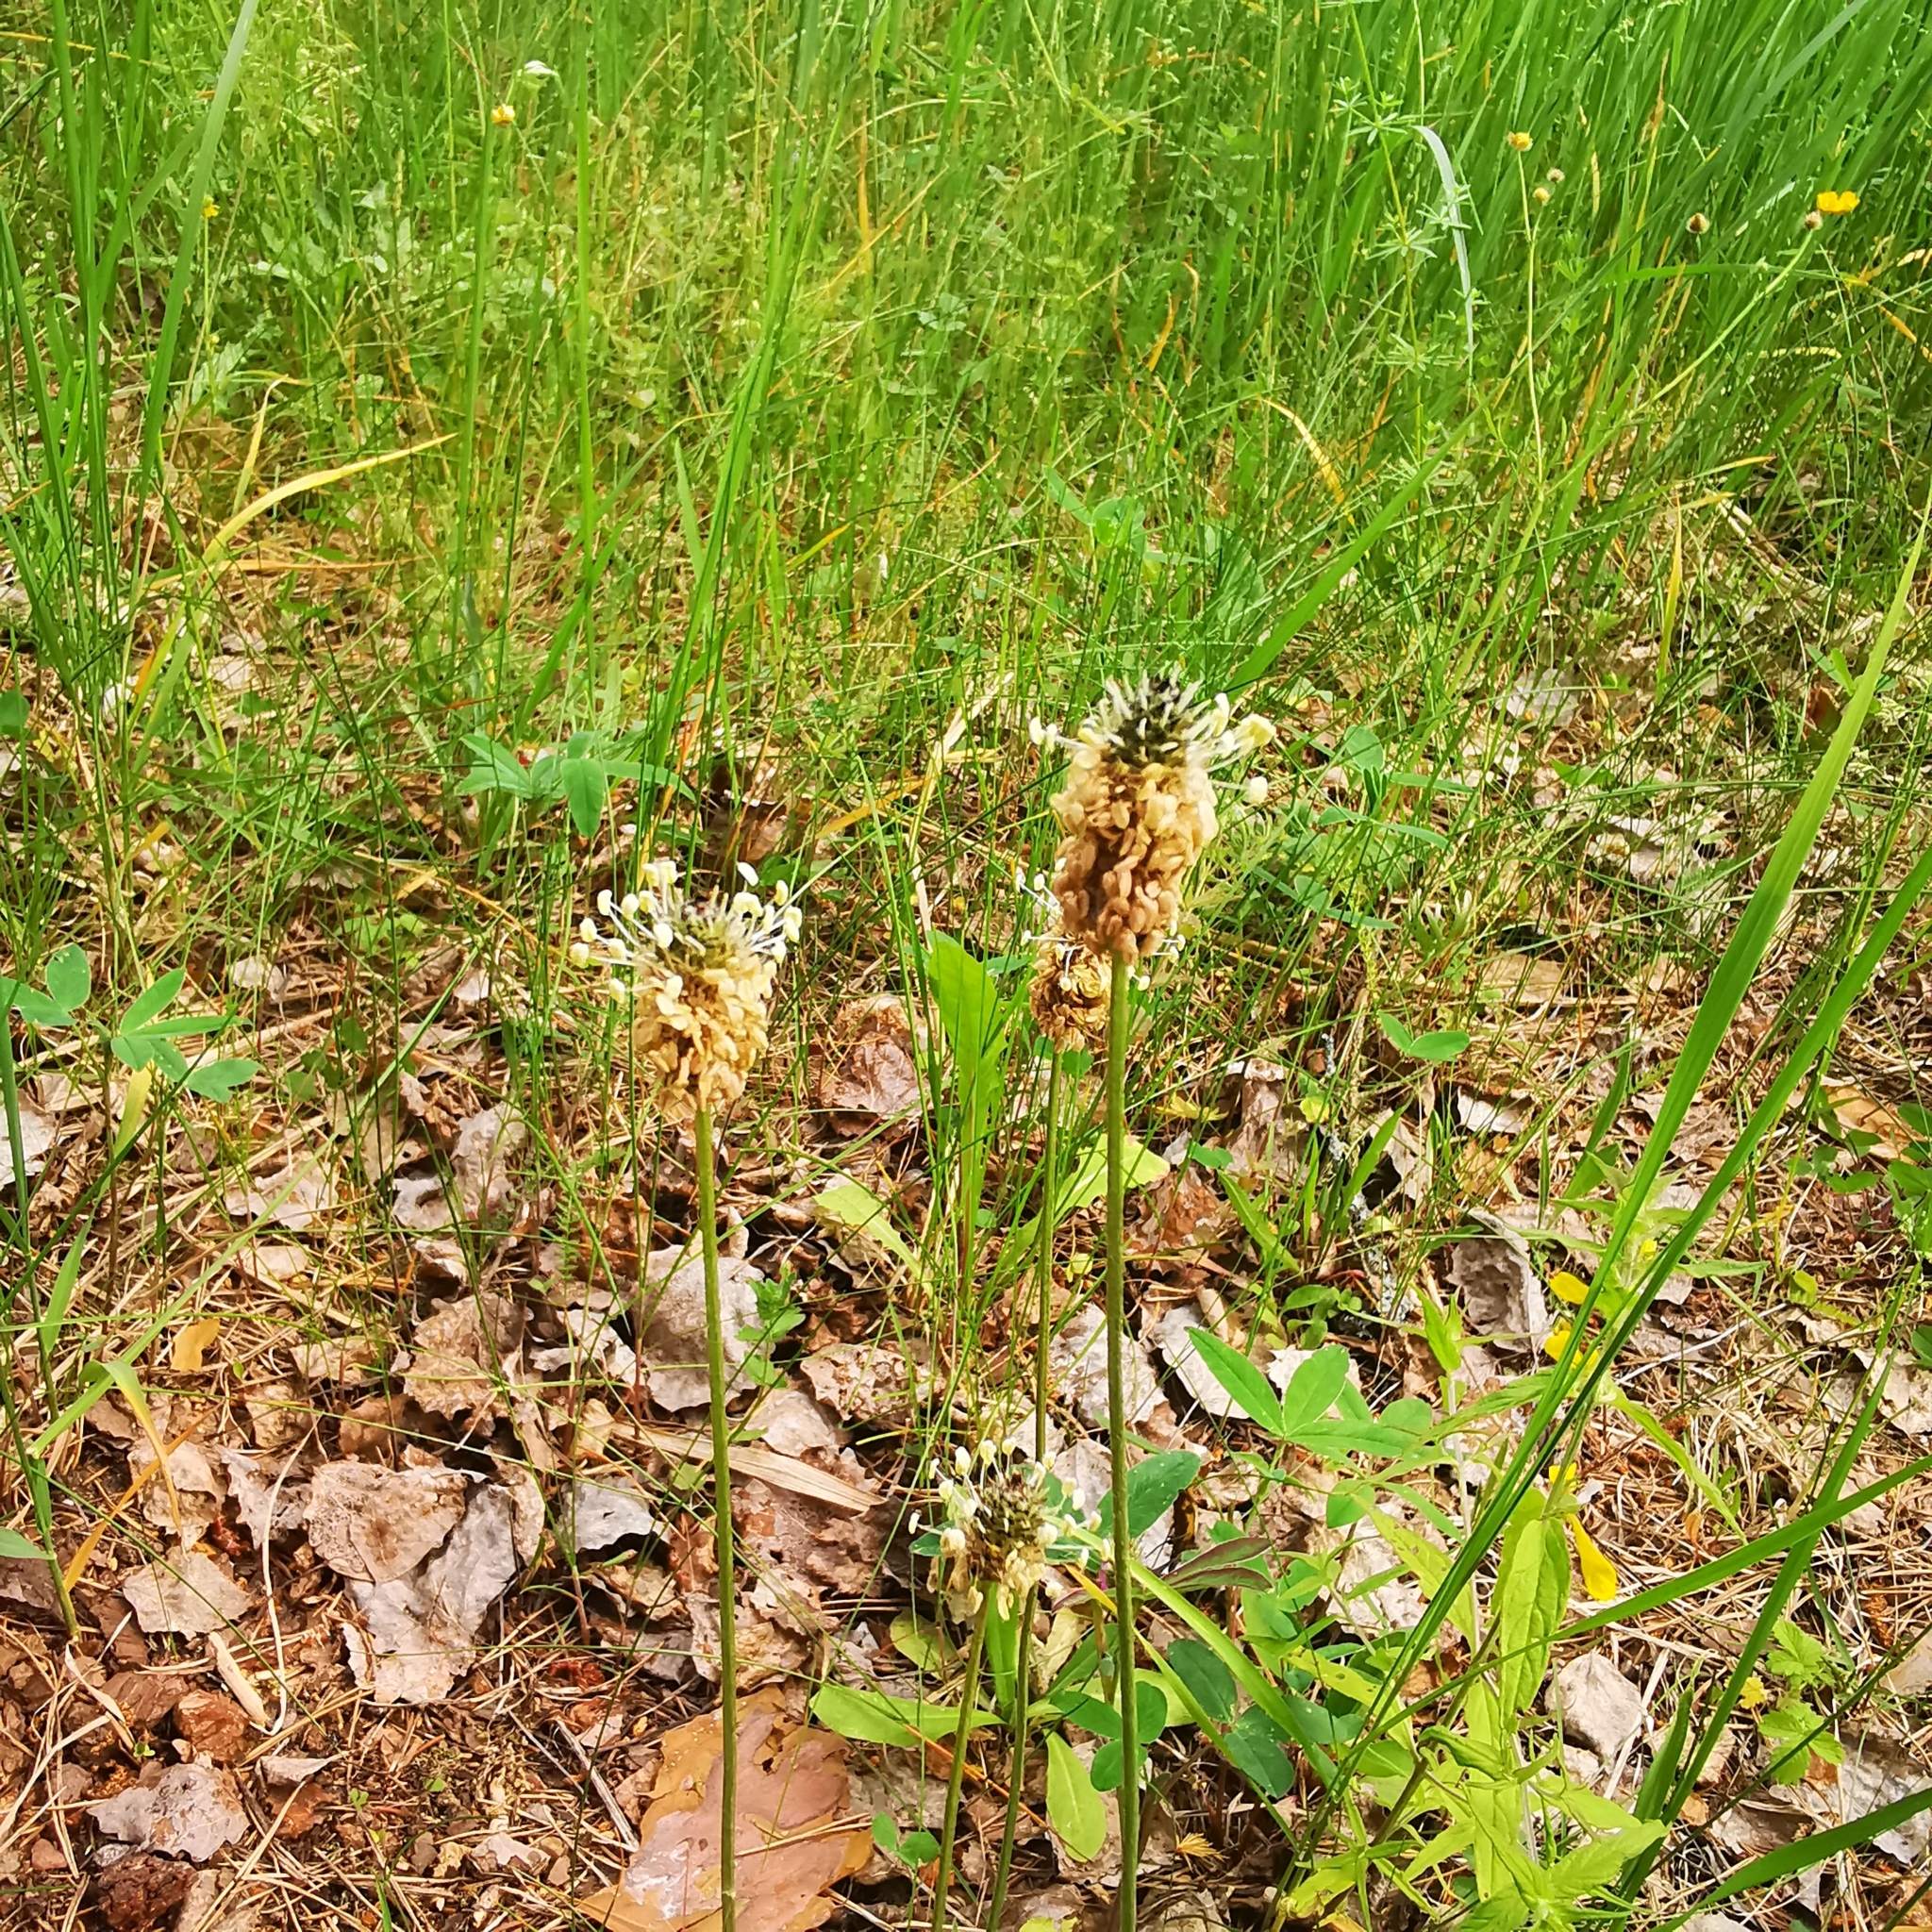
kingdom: Plantae
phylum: Tracheophyta
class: Magnoliopsida
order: Lamiales
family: Plantaginaceae
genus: Plantago
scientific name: Plantago lanceolata
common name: Ribwort plantain
